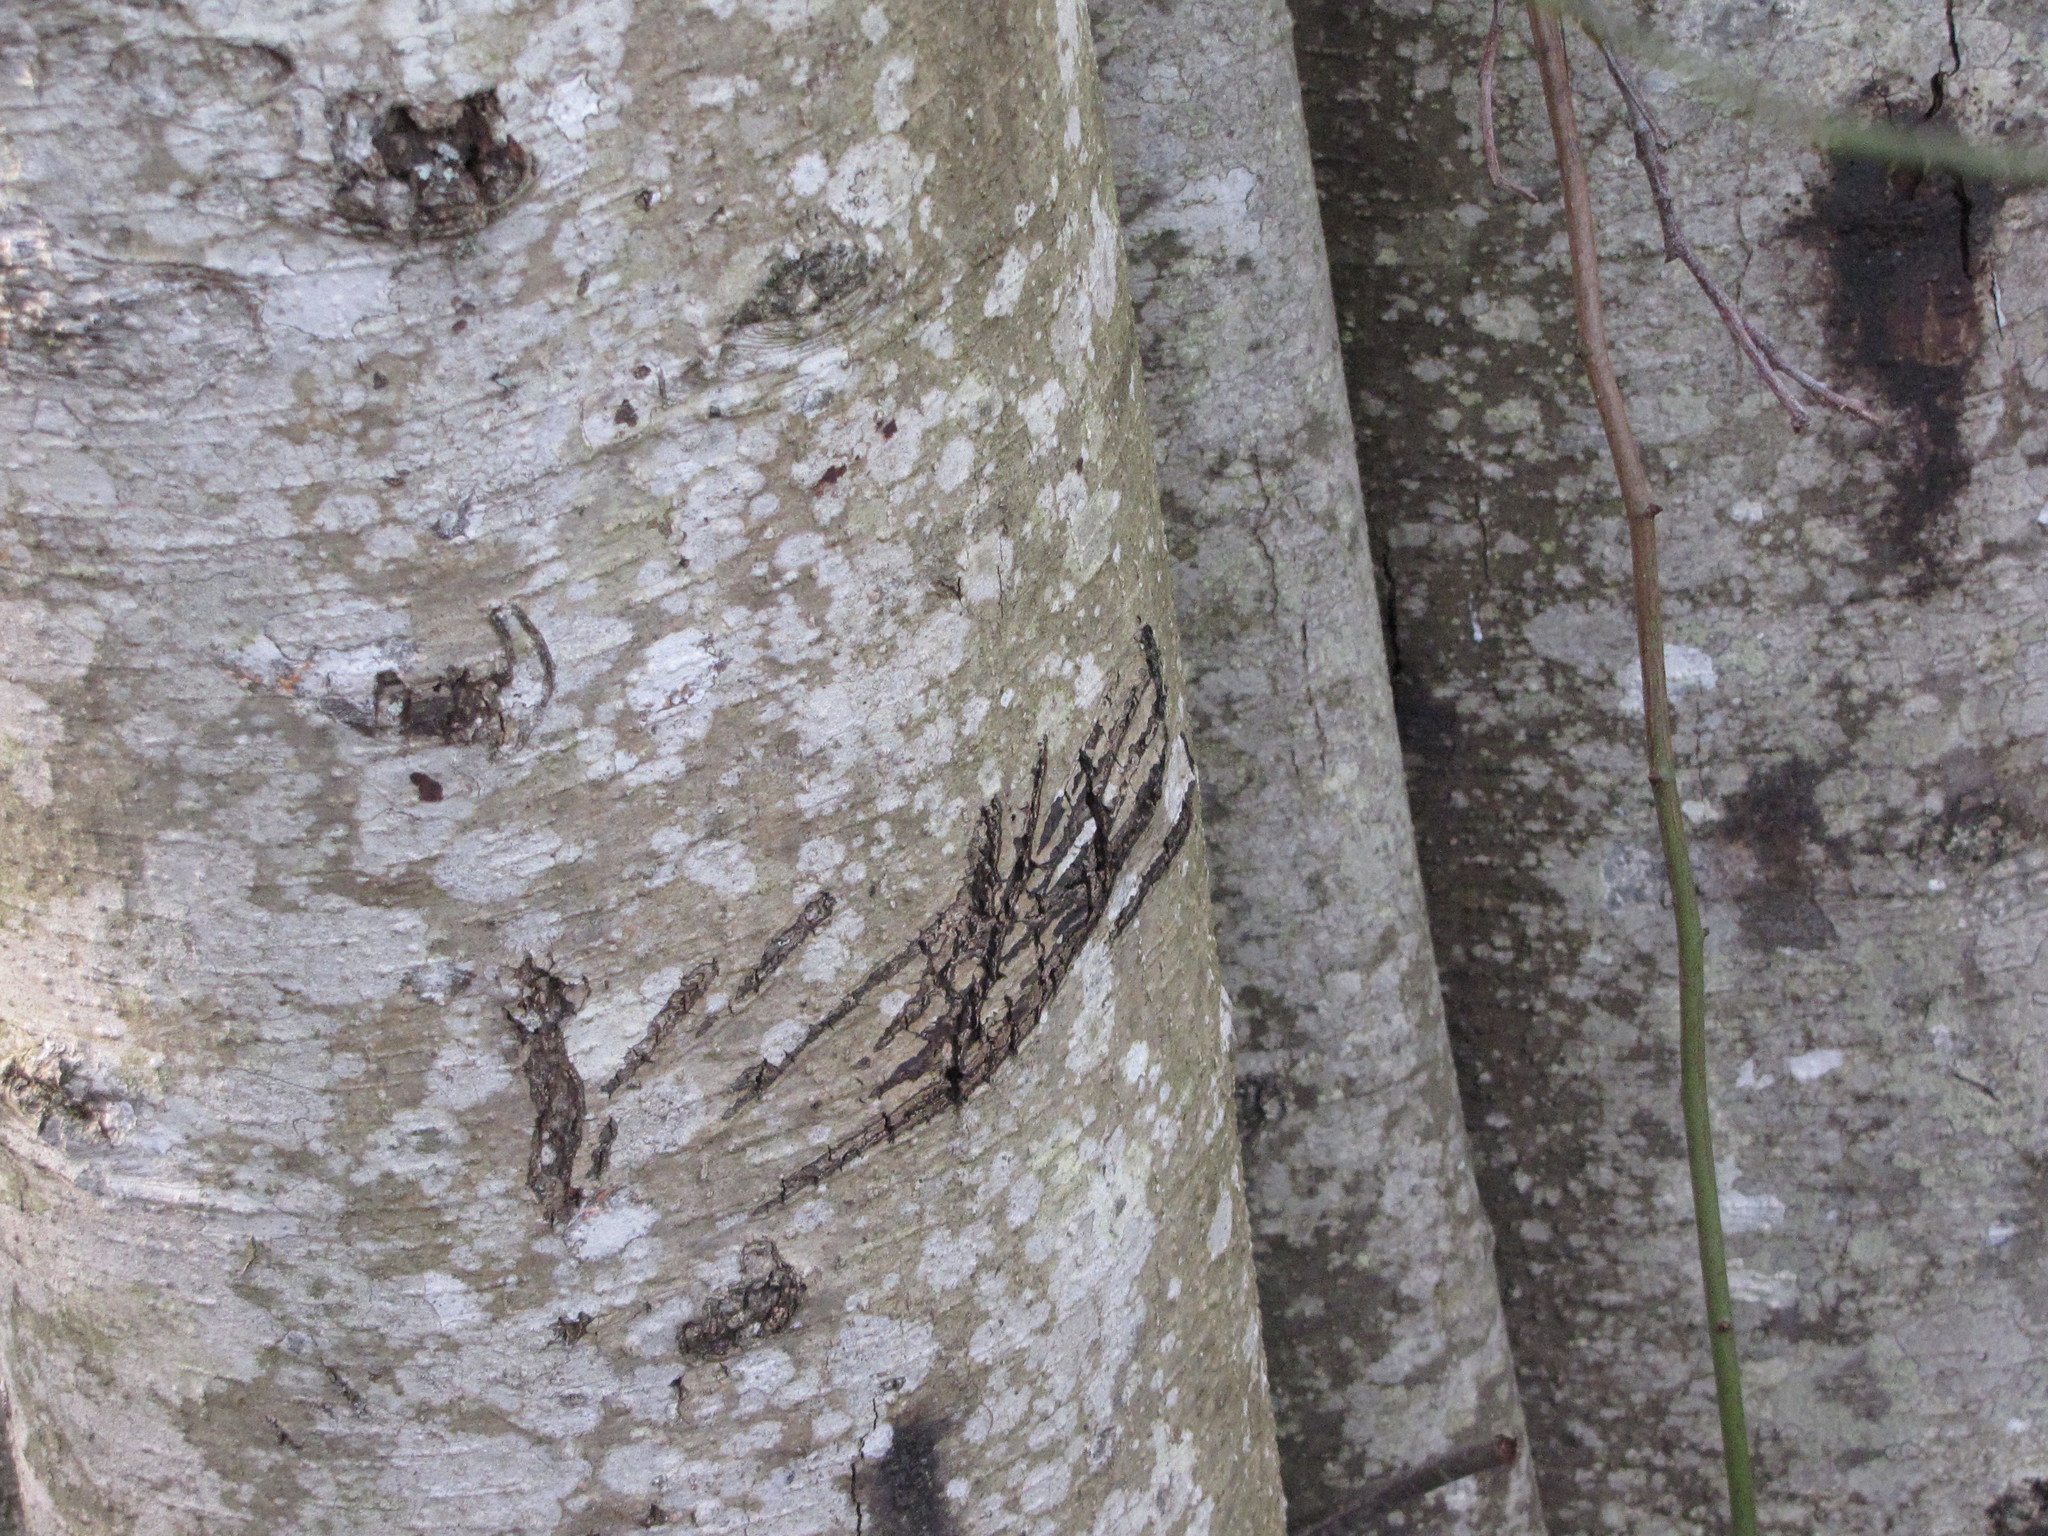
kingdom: Animalia
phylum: Chordata
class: Mammalia
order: Carnivora
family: Ursidae
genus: Ursus
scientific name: Ursus americanus
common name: American black bear
